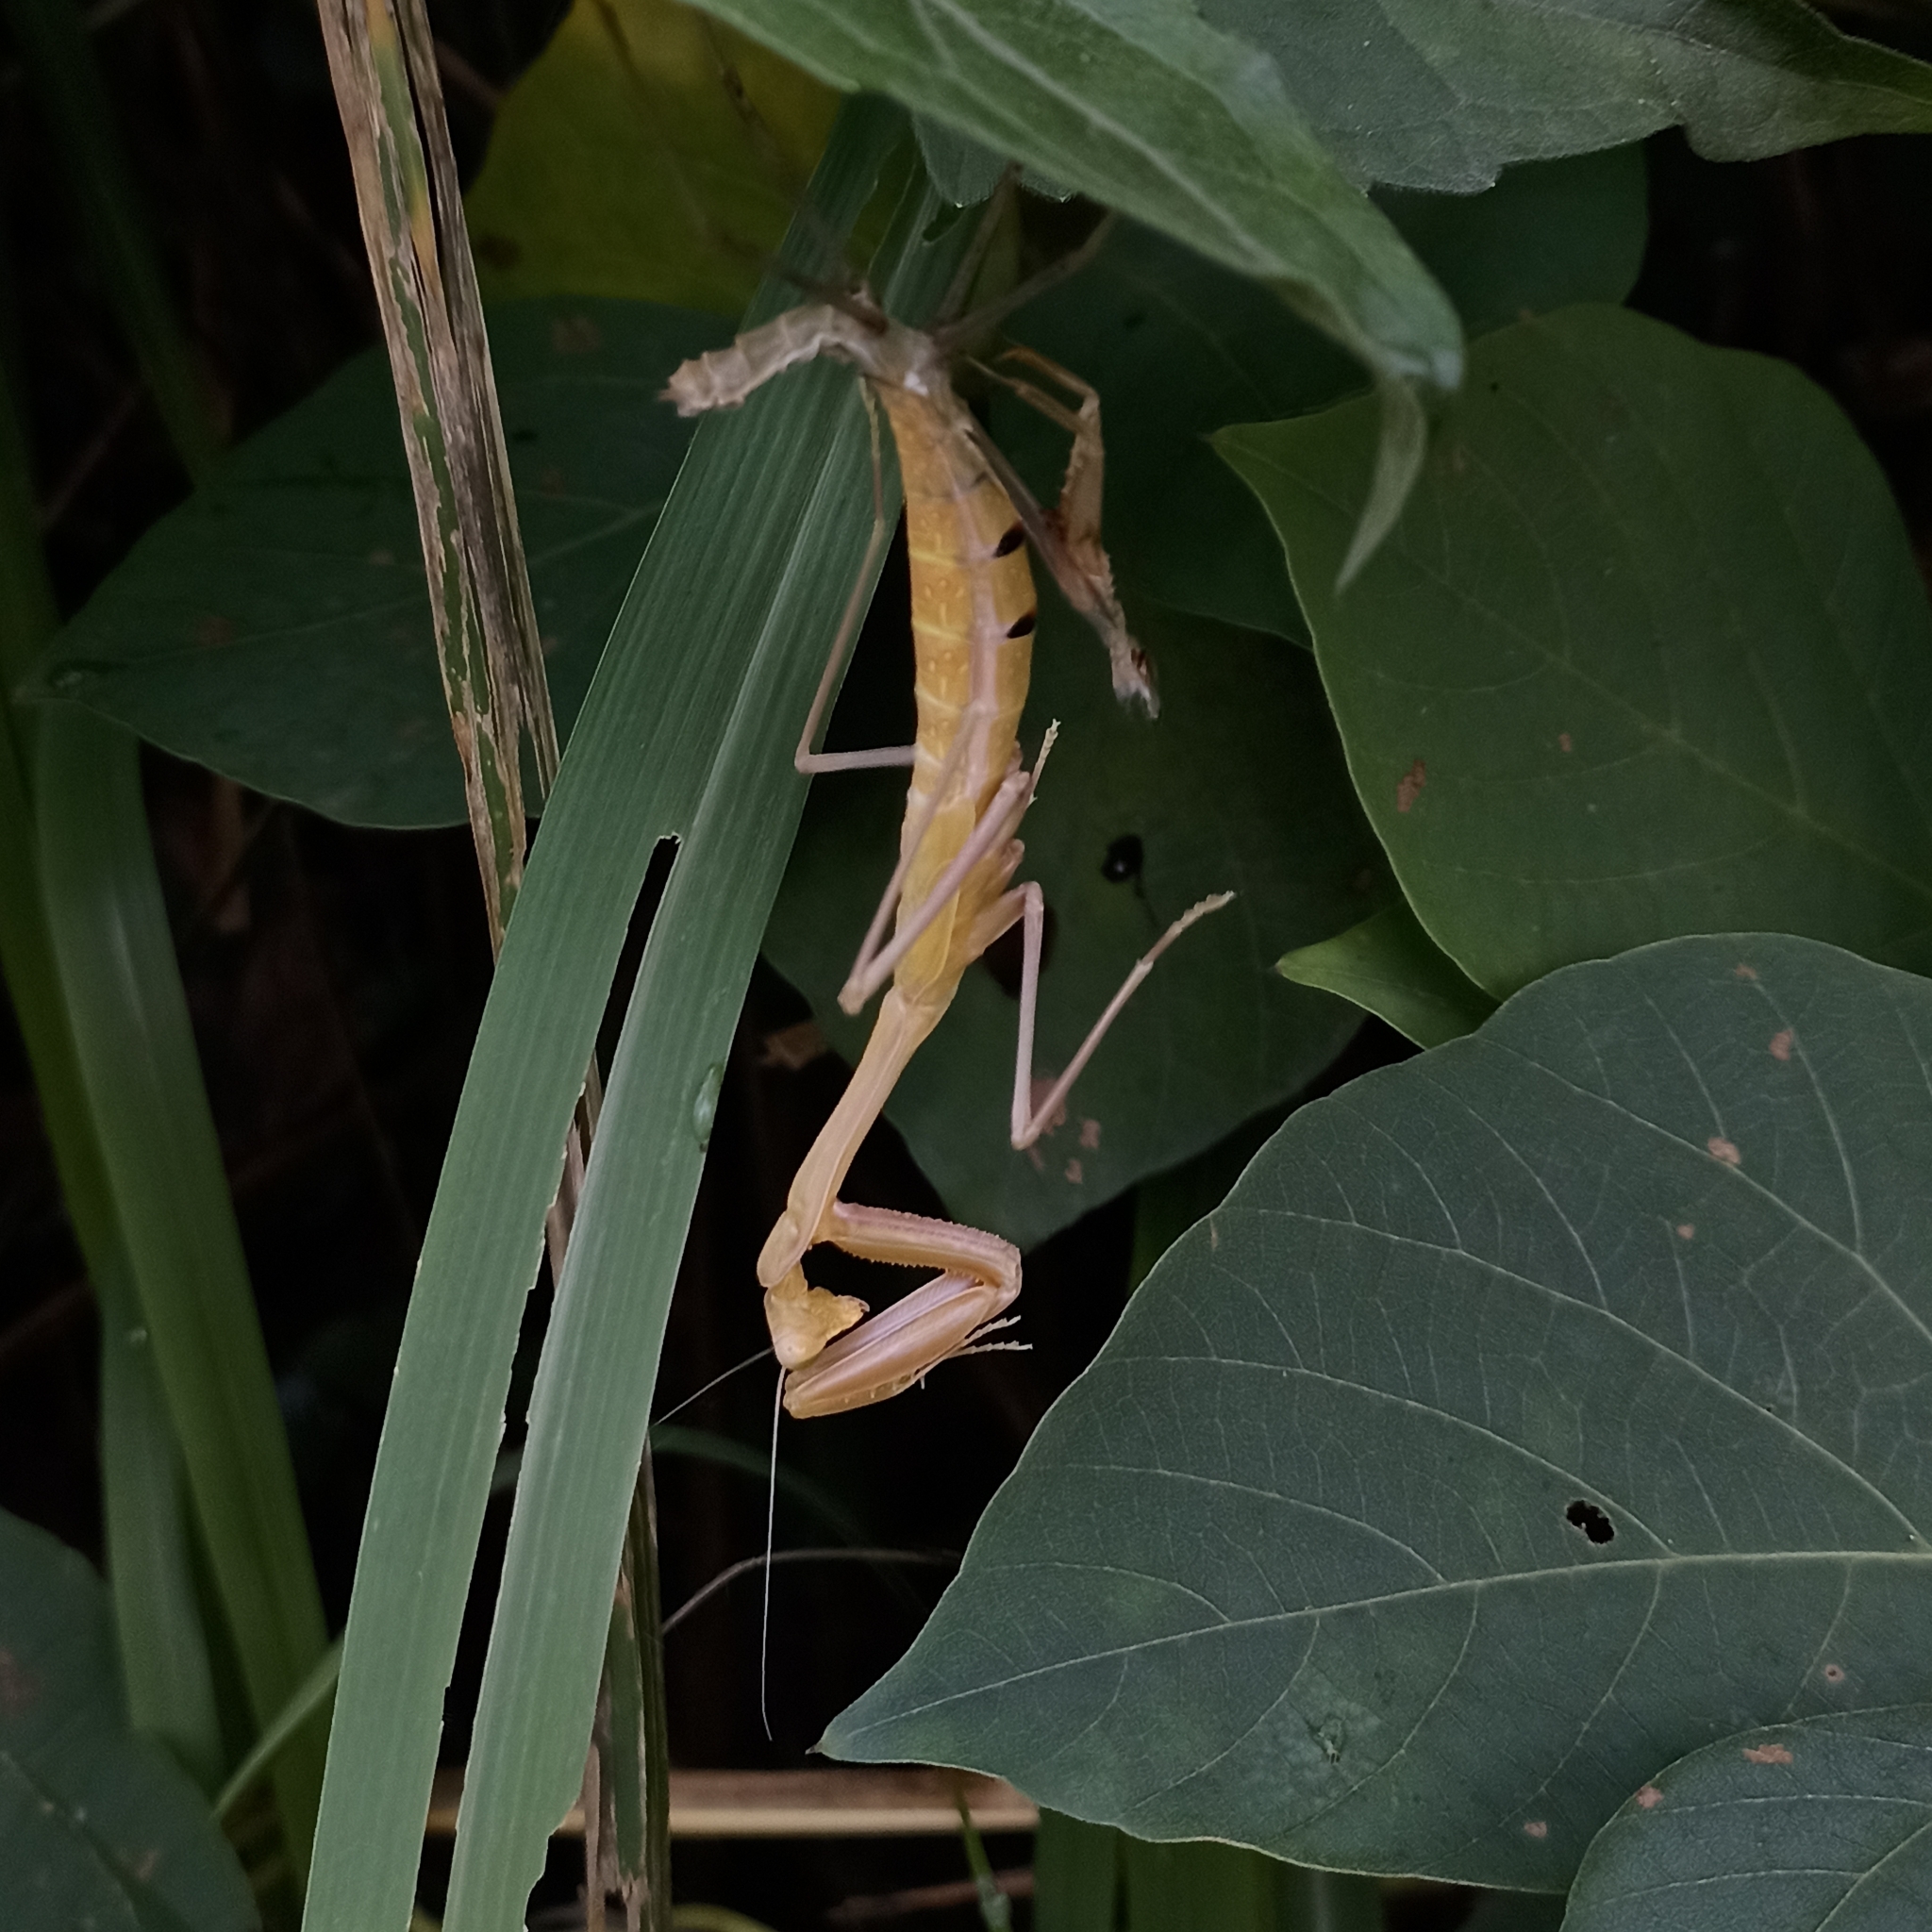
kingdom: Animalia
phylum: Arthropoda
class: Insecta
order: Mantodea
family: Mantidae
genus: Hierodula
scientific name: Hierodula membranacea
